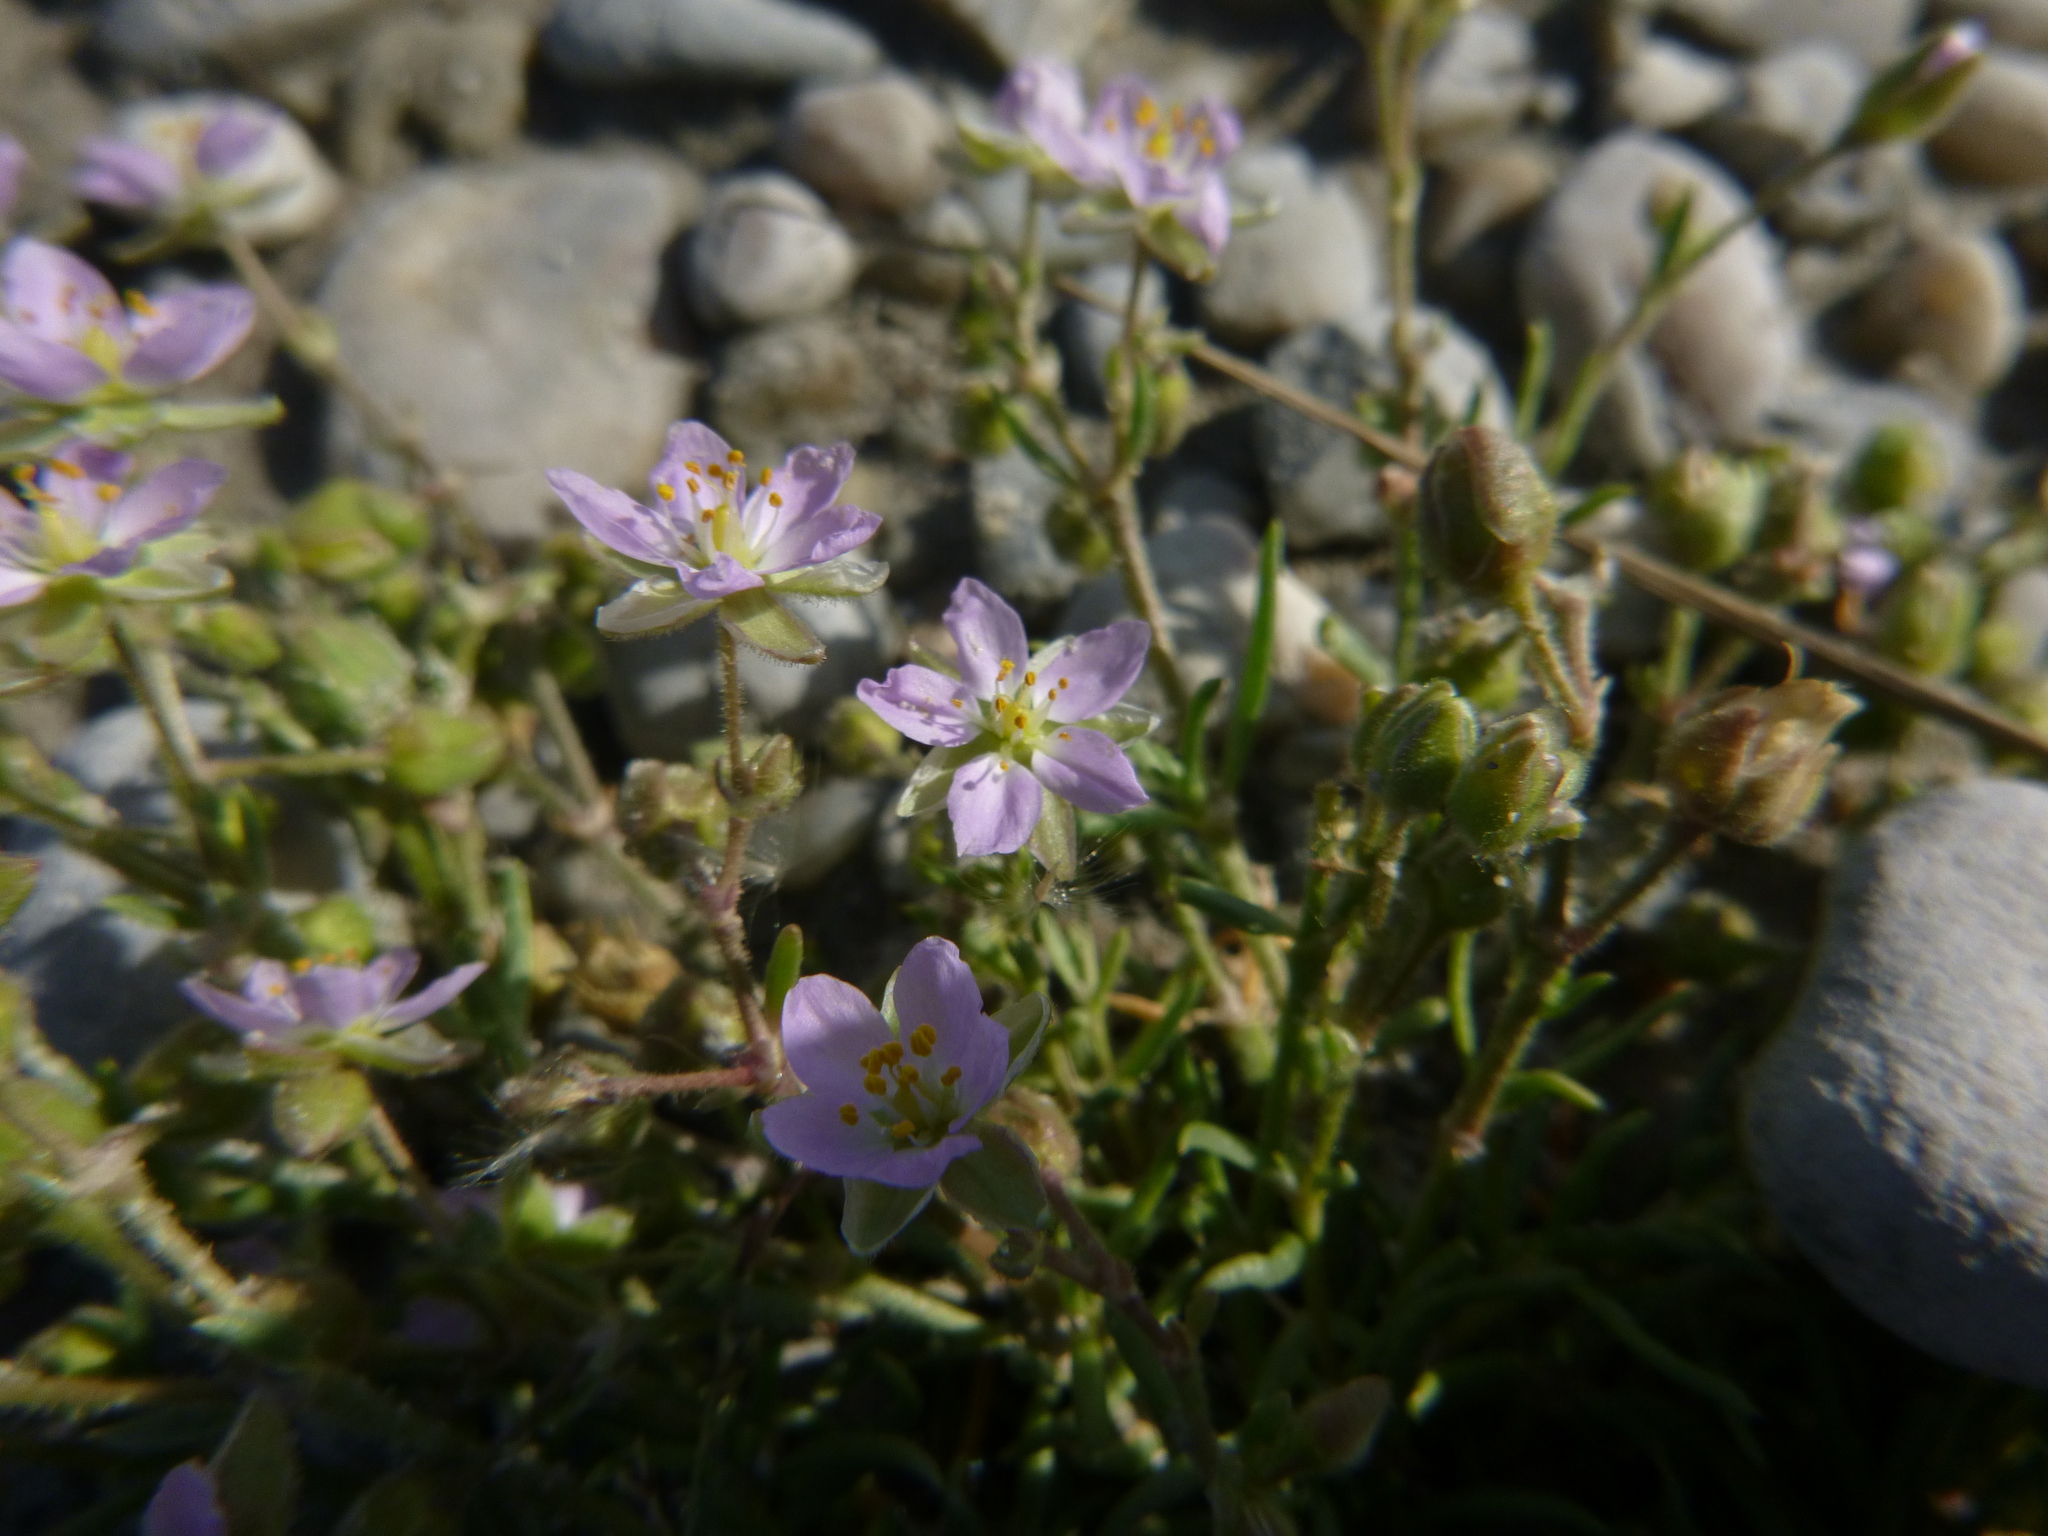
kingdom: Plantae
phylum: Tracheophyta
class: Magnoliopsida
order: Caryophyllales
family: Caryophyllaceae
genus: Spergularia
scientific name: Spergularia media
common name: Greater sea-spurrey
